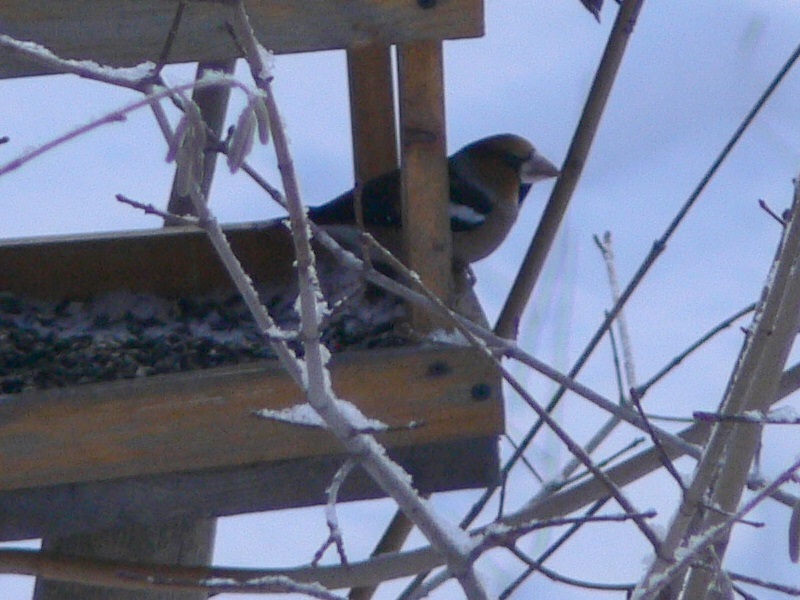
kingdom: Animalia
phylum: Chordata
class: Aves
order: Passeriformes
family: Fringillidae
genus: Coccothraustes
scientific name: Coccothraustes coccothraustes
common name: Hawfinch
